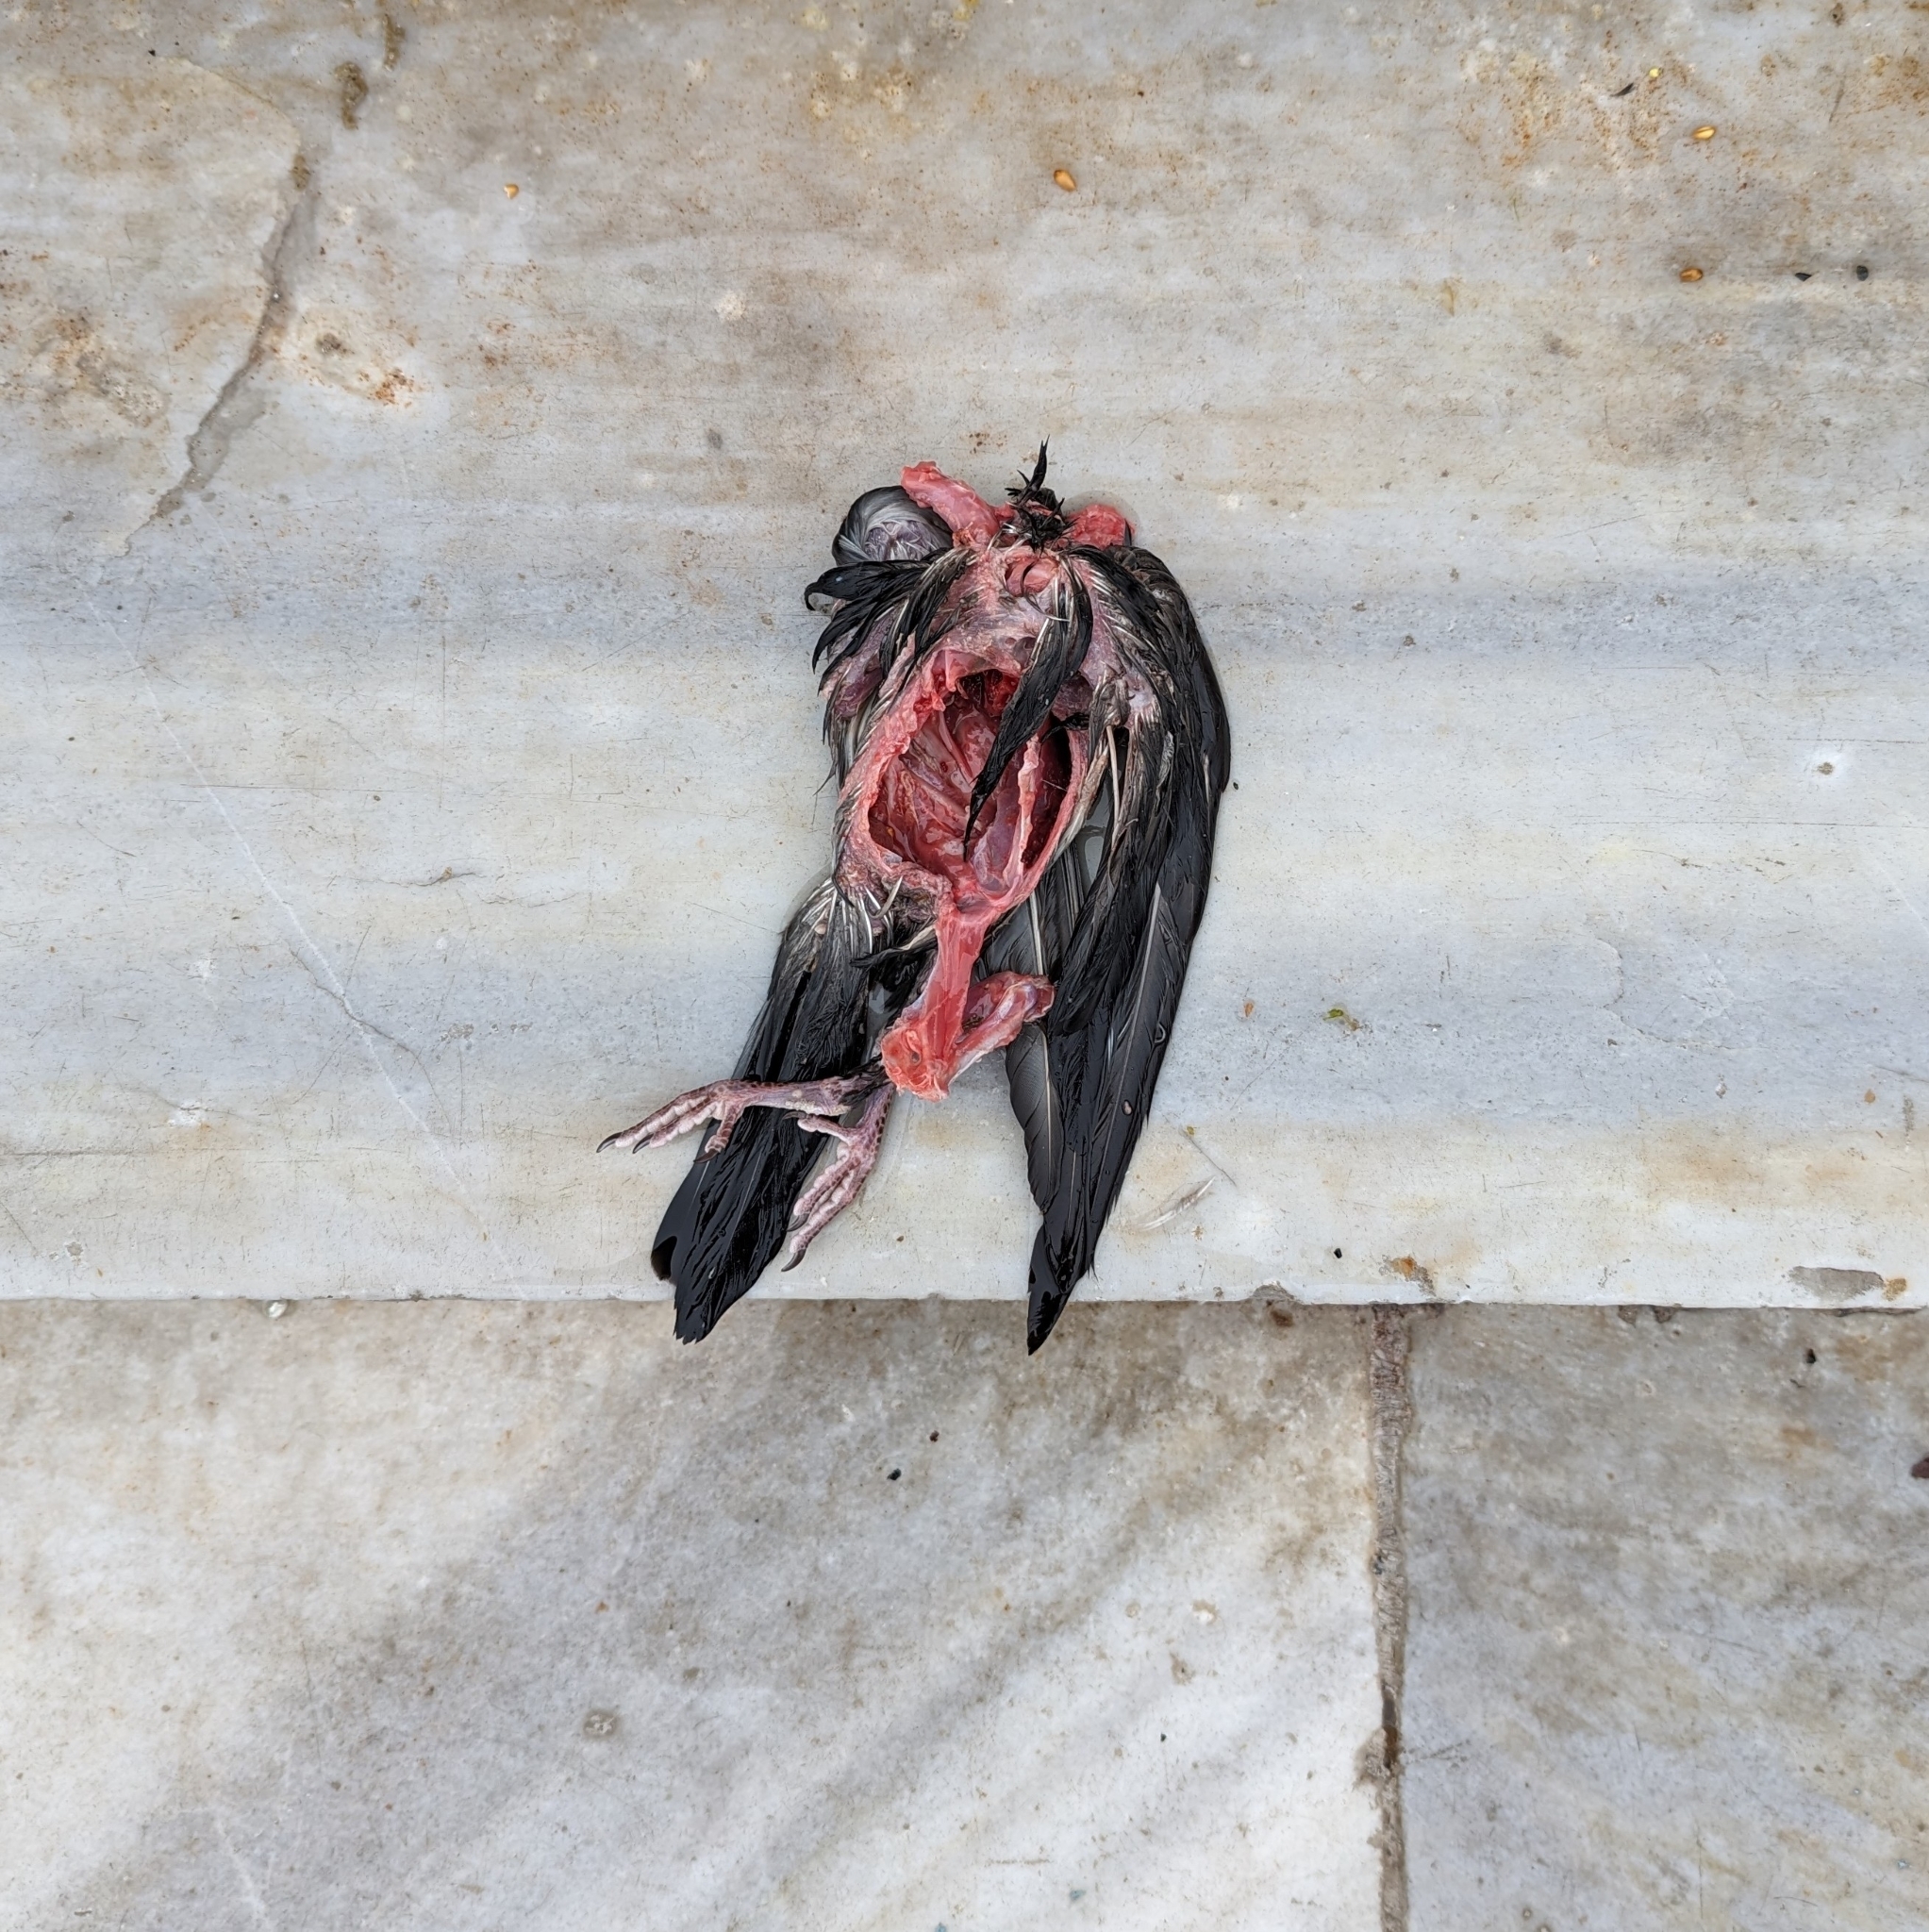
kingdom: Animalia
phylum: Chordata
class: Aves
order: Columbiformes
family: Columbidae
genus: Columba
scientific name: Columba livia
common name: Rock pigeon
